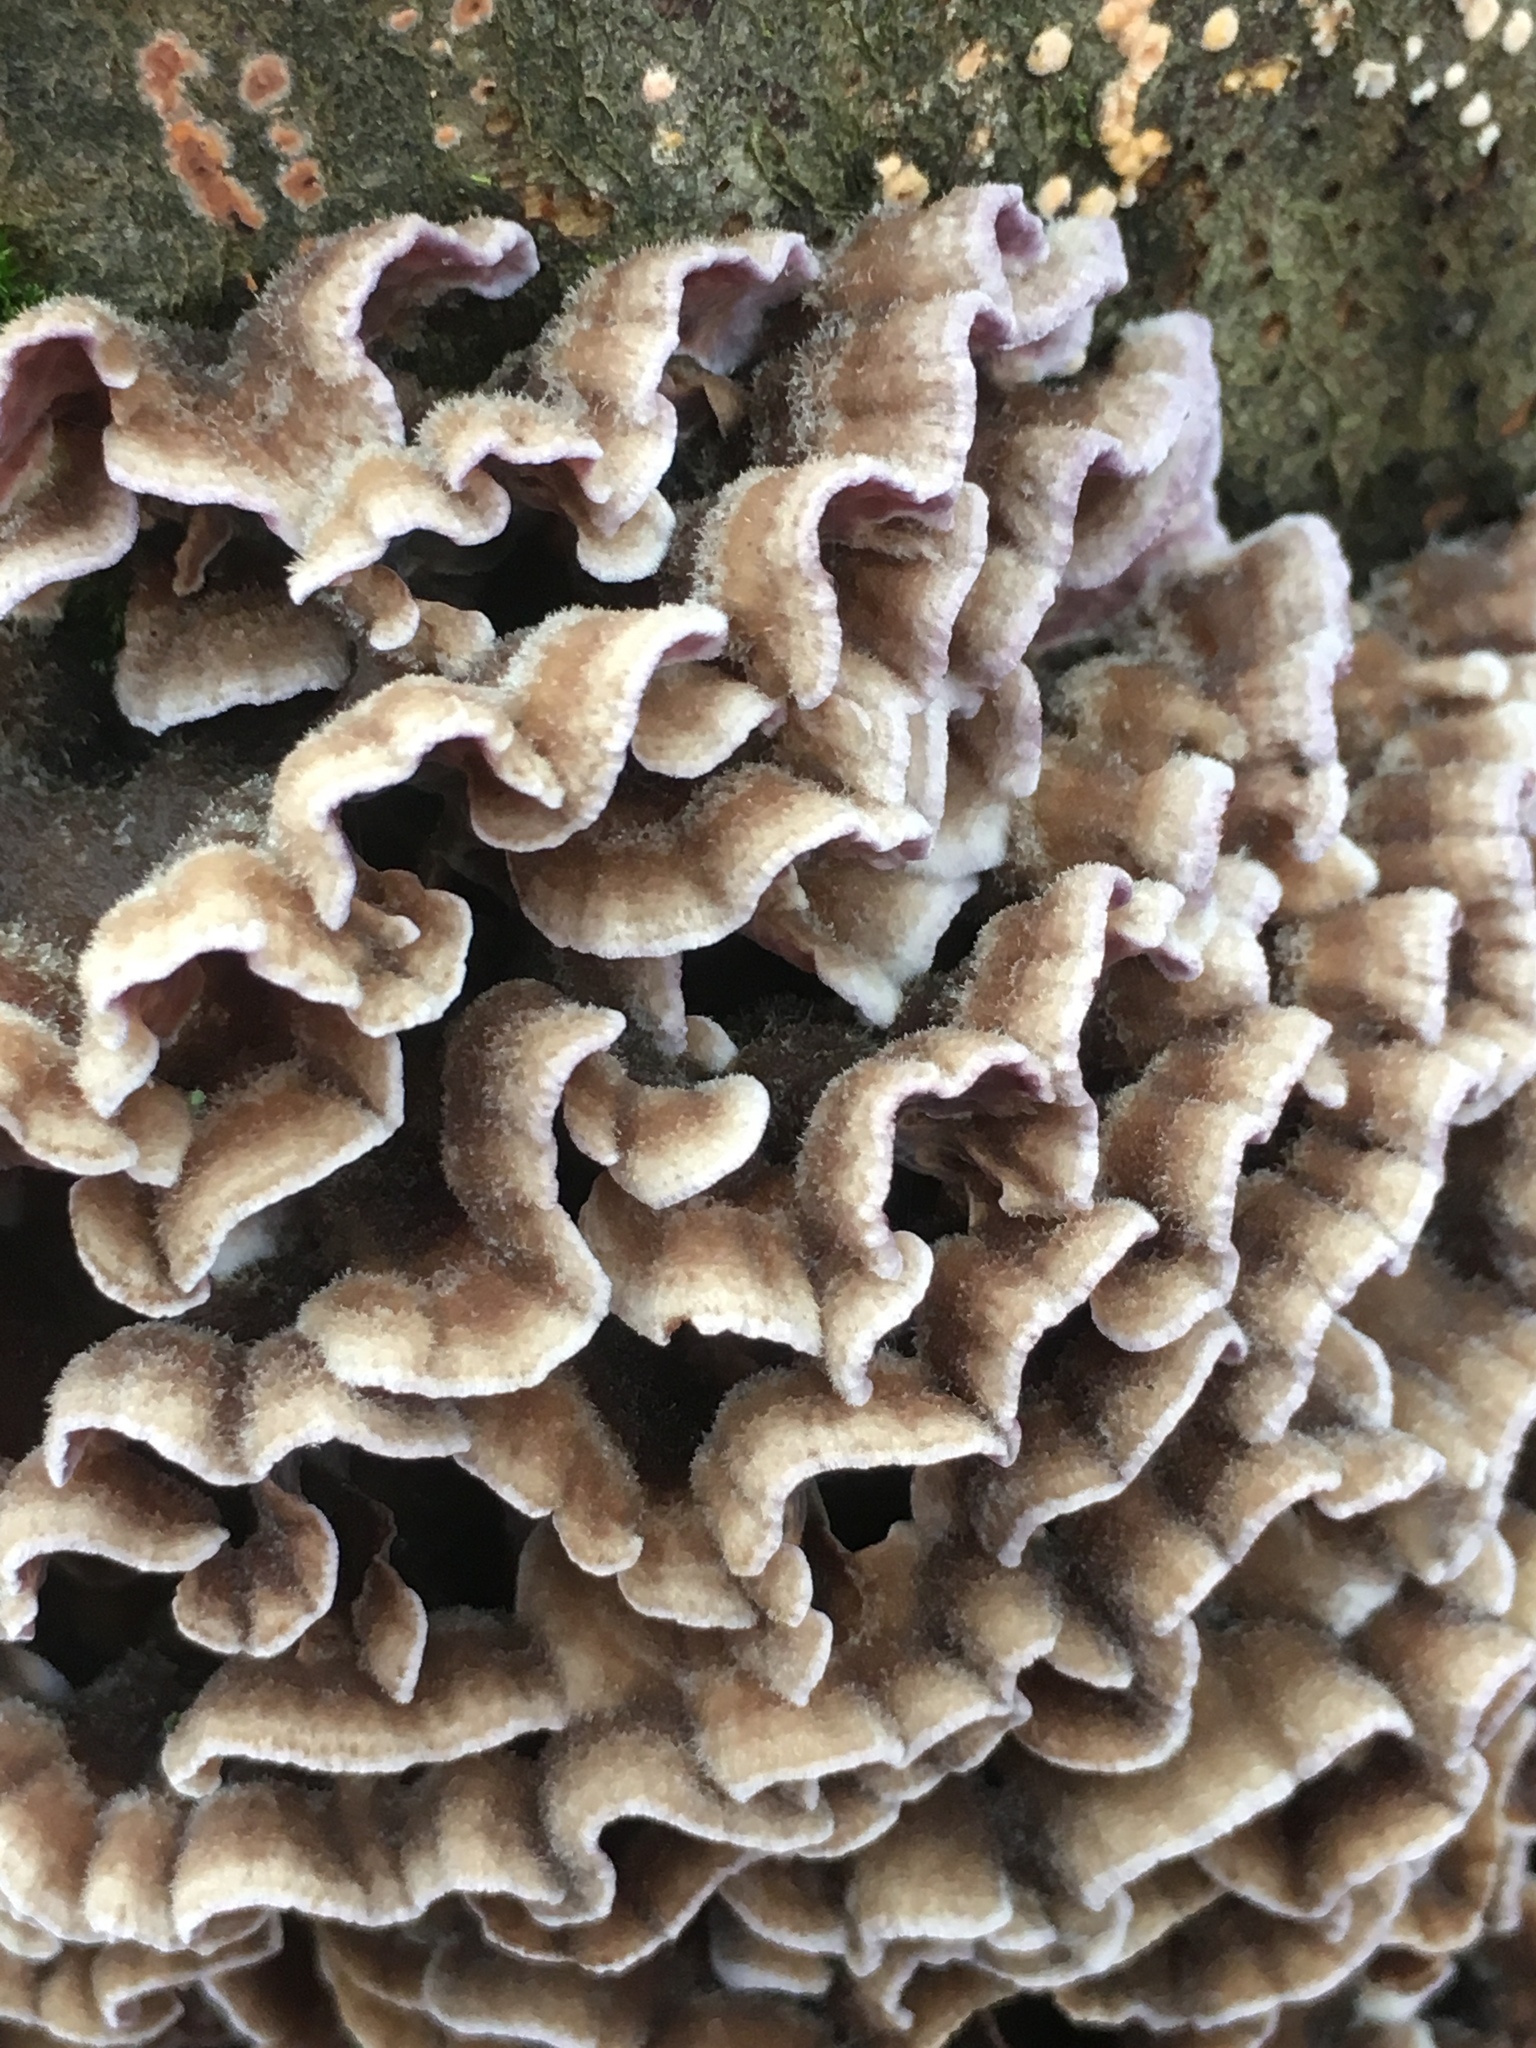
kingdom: Fungi
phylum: Basidiomycota
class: Agaricomycetes
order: Agaricales
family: Cyphellaceae
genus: Chondrostereum
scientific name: Chondrostereum purpureum
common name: Silver leaf disease
